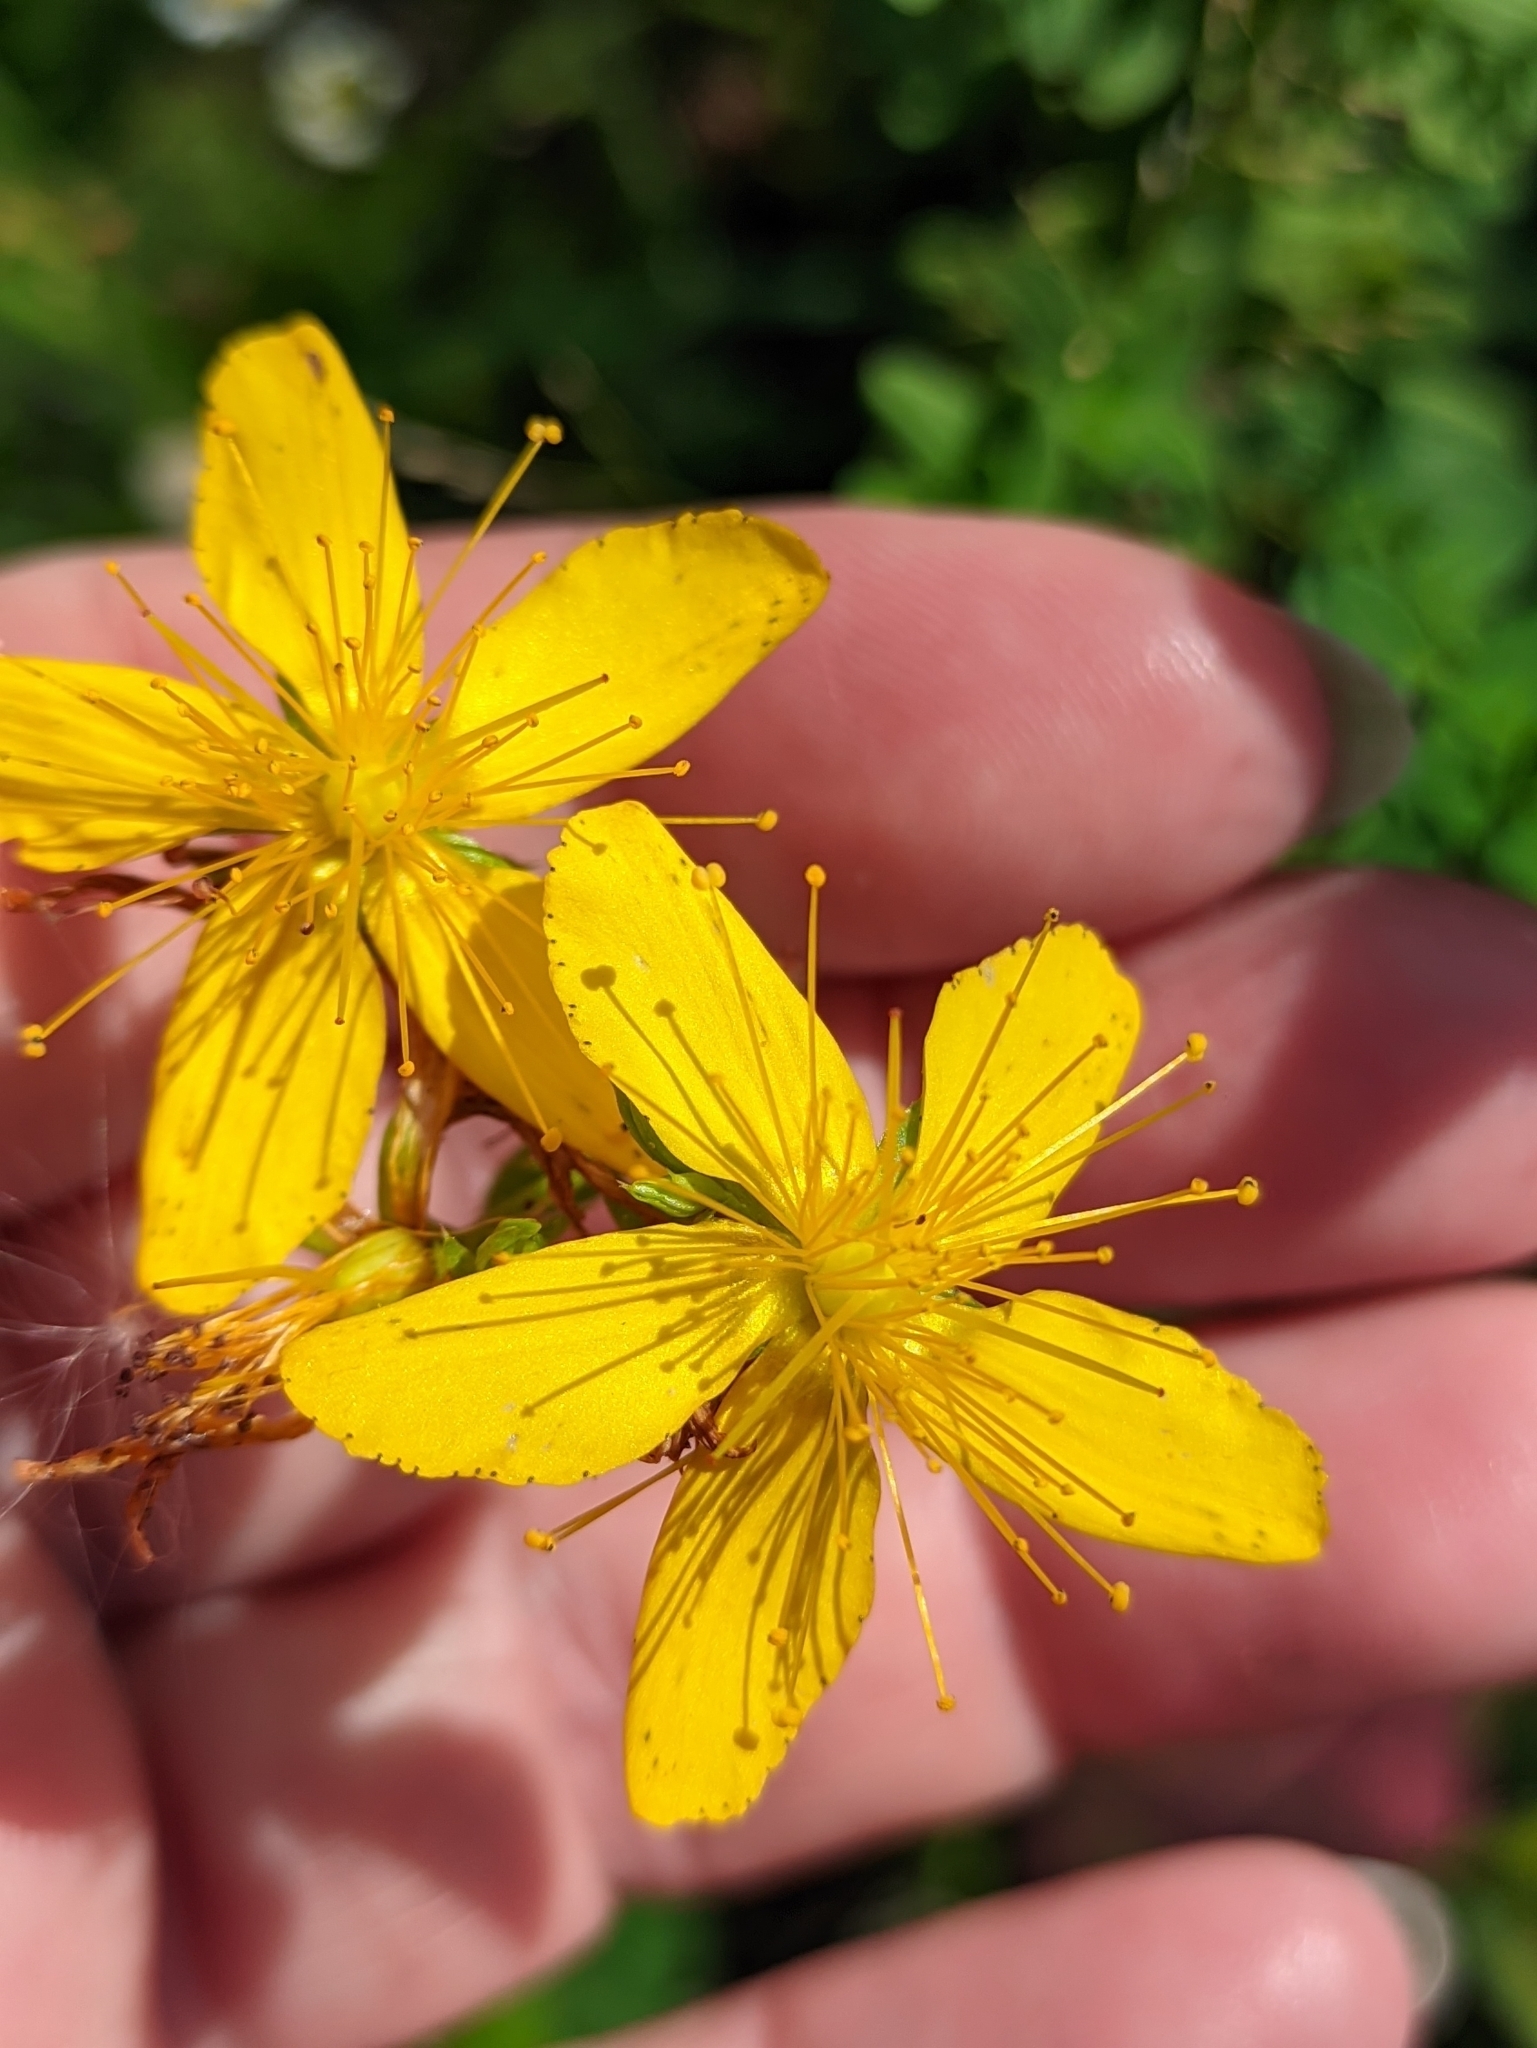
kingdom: Plantae
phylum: Tracheophyta
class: Magnoliopsida
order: Malpighiales
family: Hypericaceae
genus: Hypericum
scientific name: Hypericum perforatum
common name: Common st. johnswort
